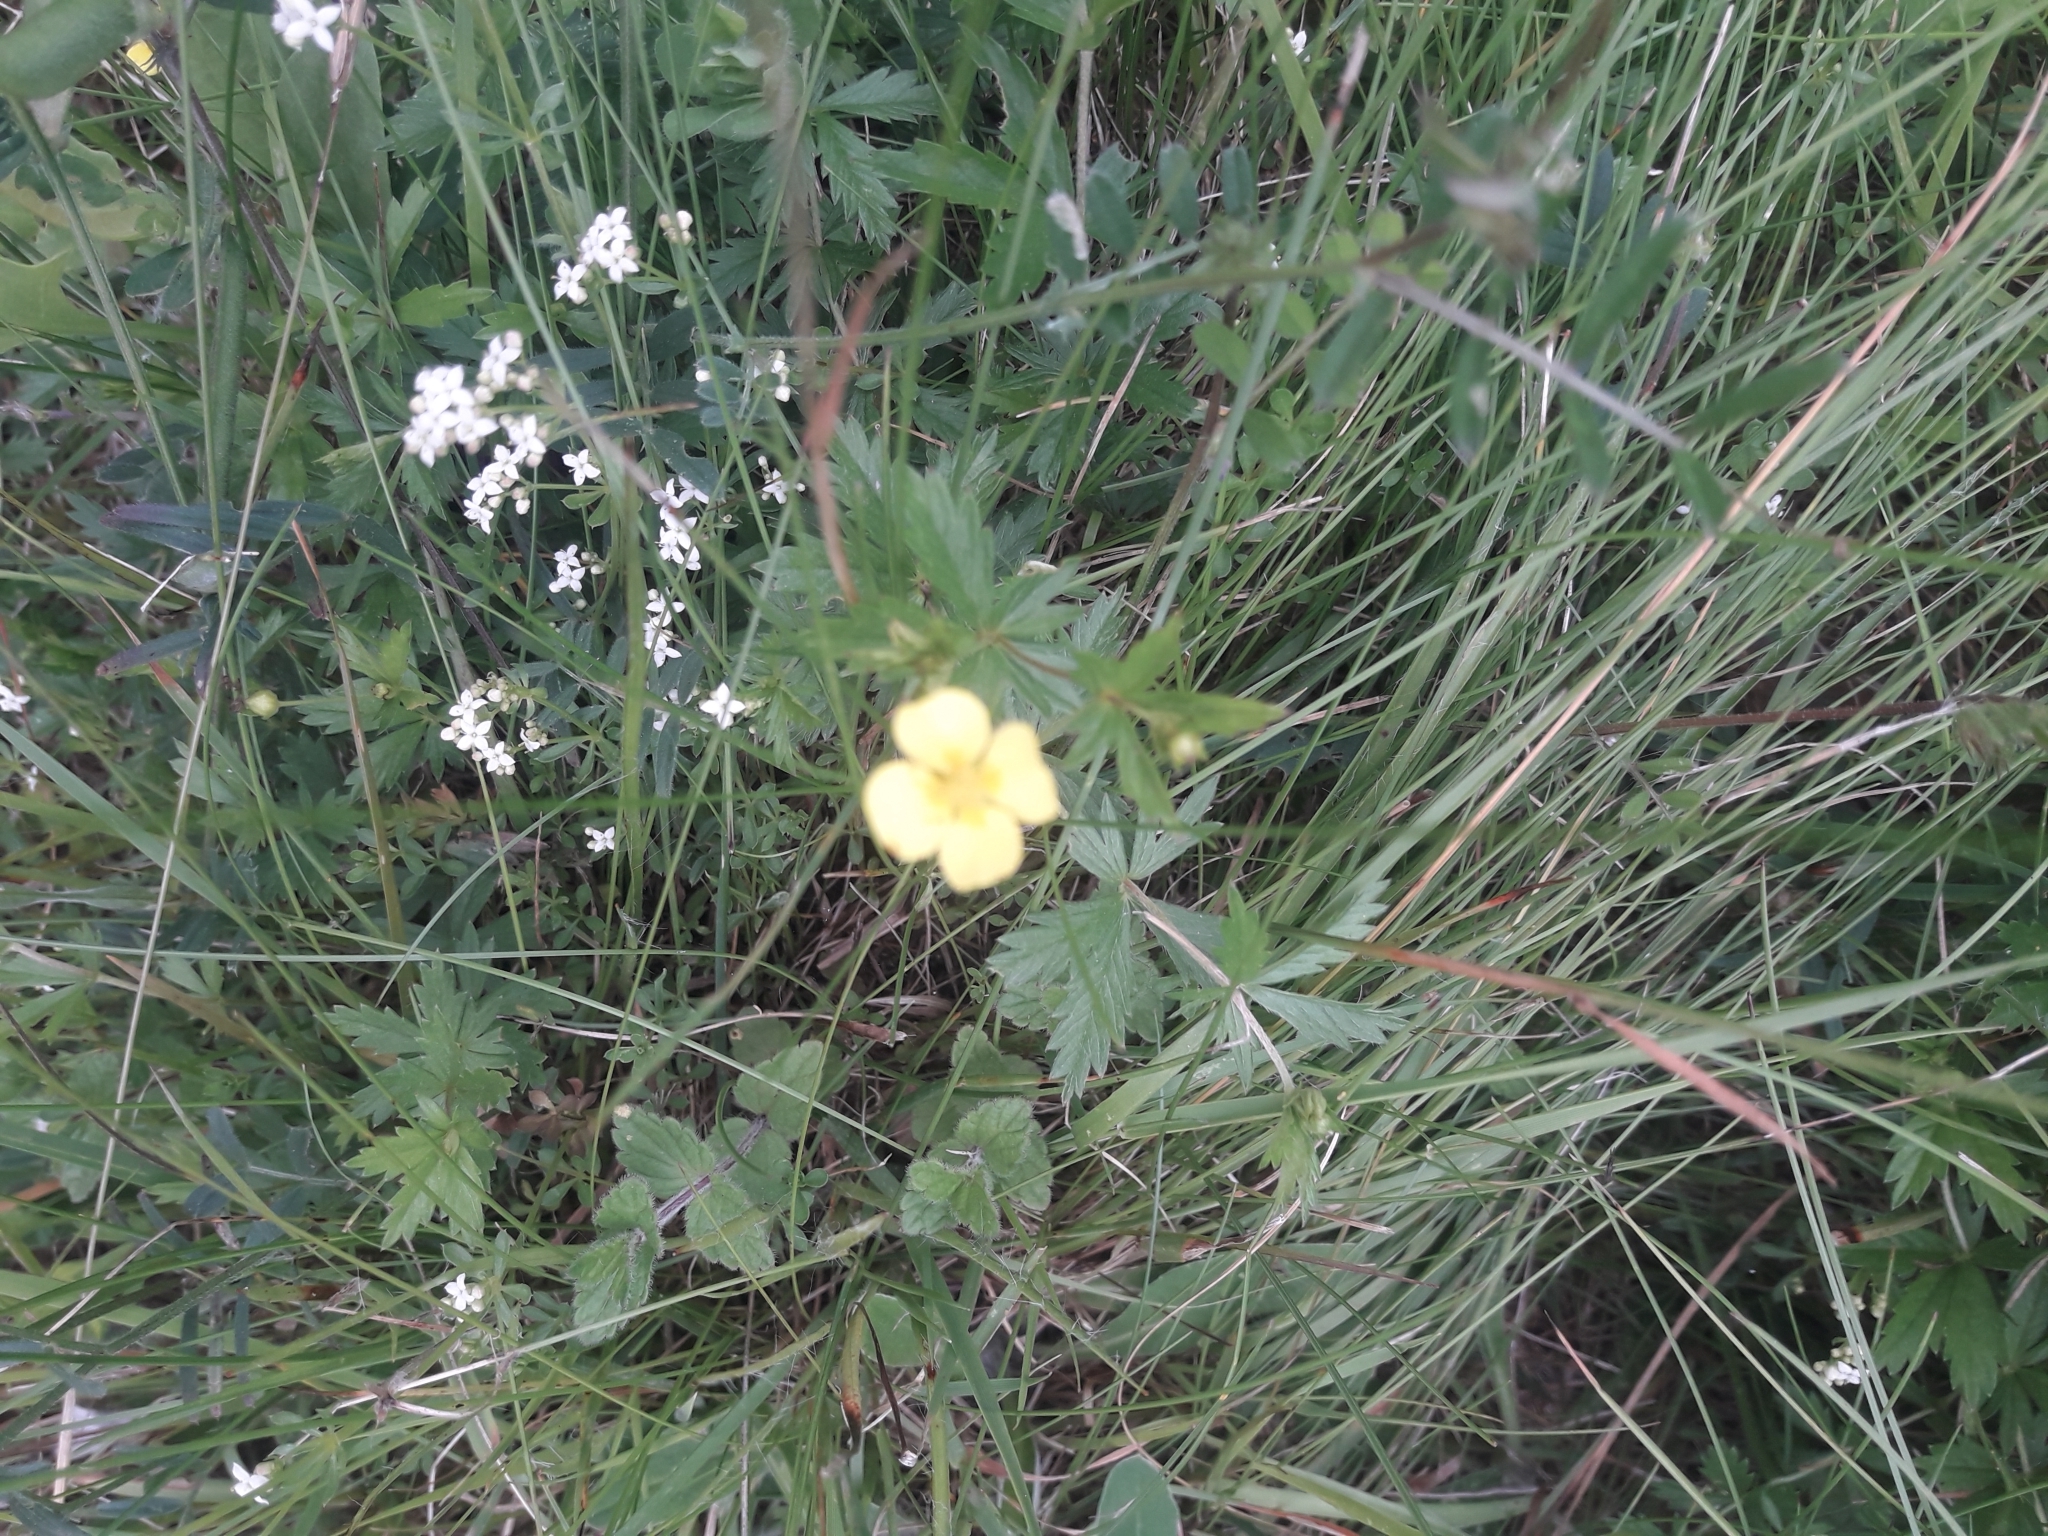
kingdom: Plantae
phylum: Tracheophyta
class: Magnoliopsida
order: Rosales
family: Rosaceae
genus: Potentilla
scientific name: Potentilla erecta
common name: Tormentil
